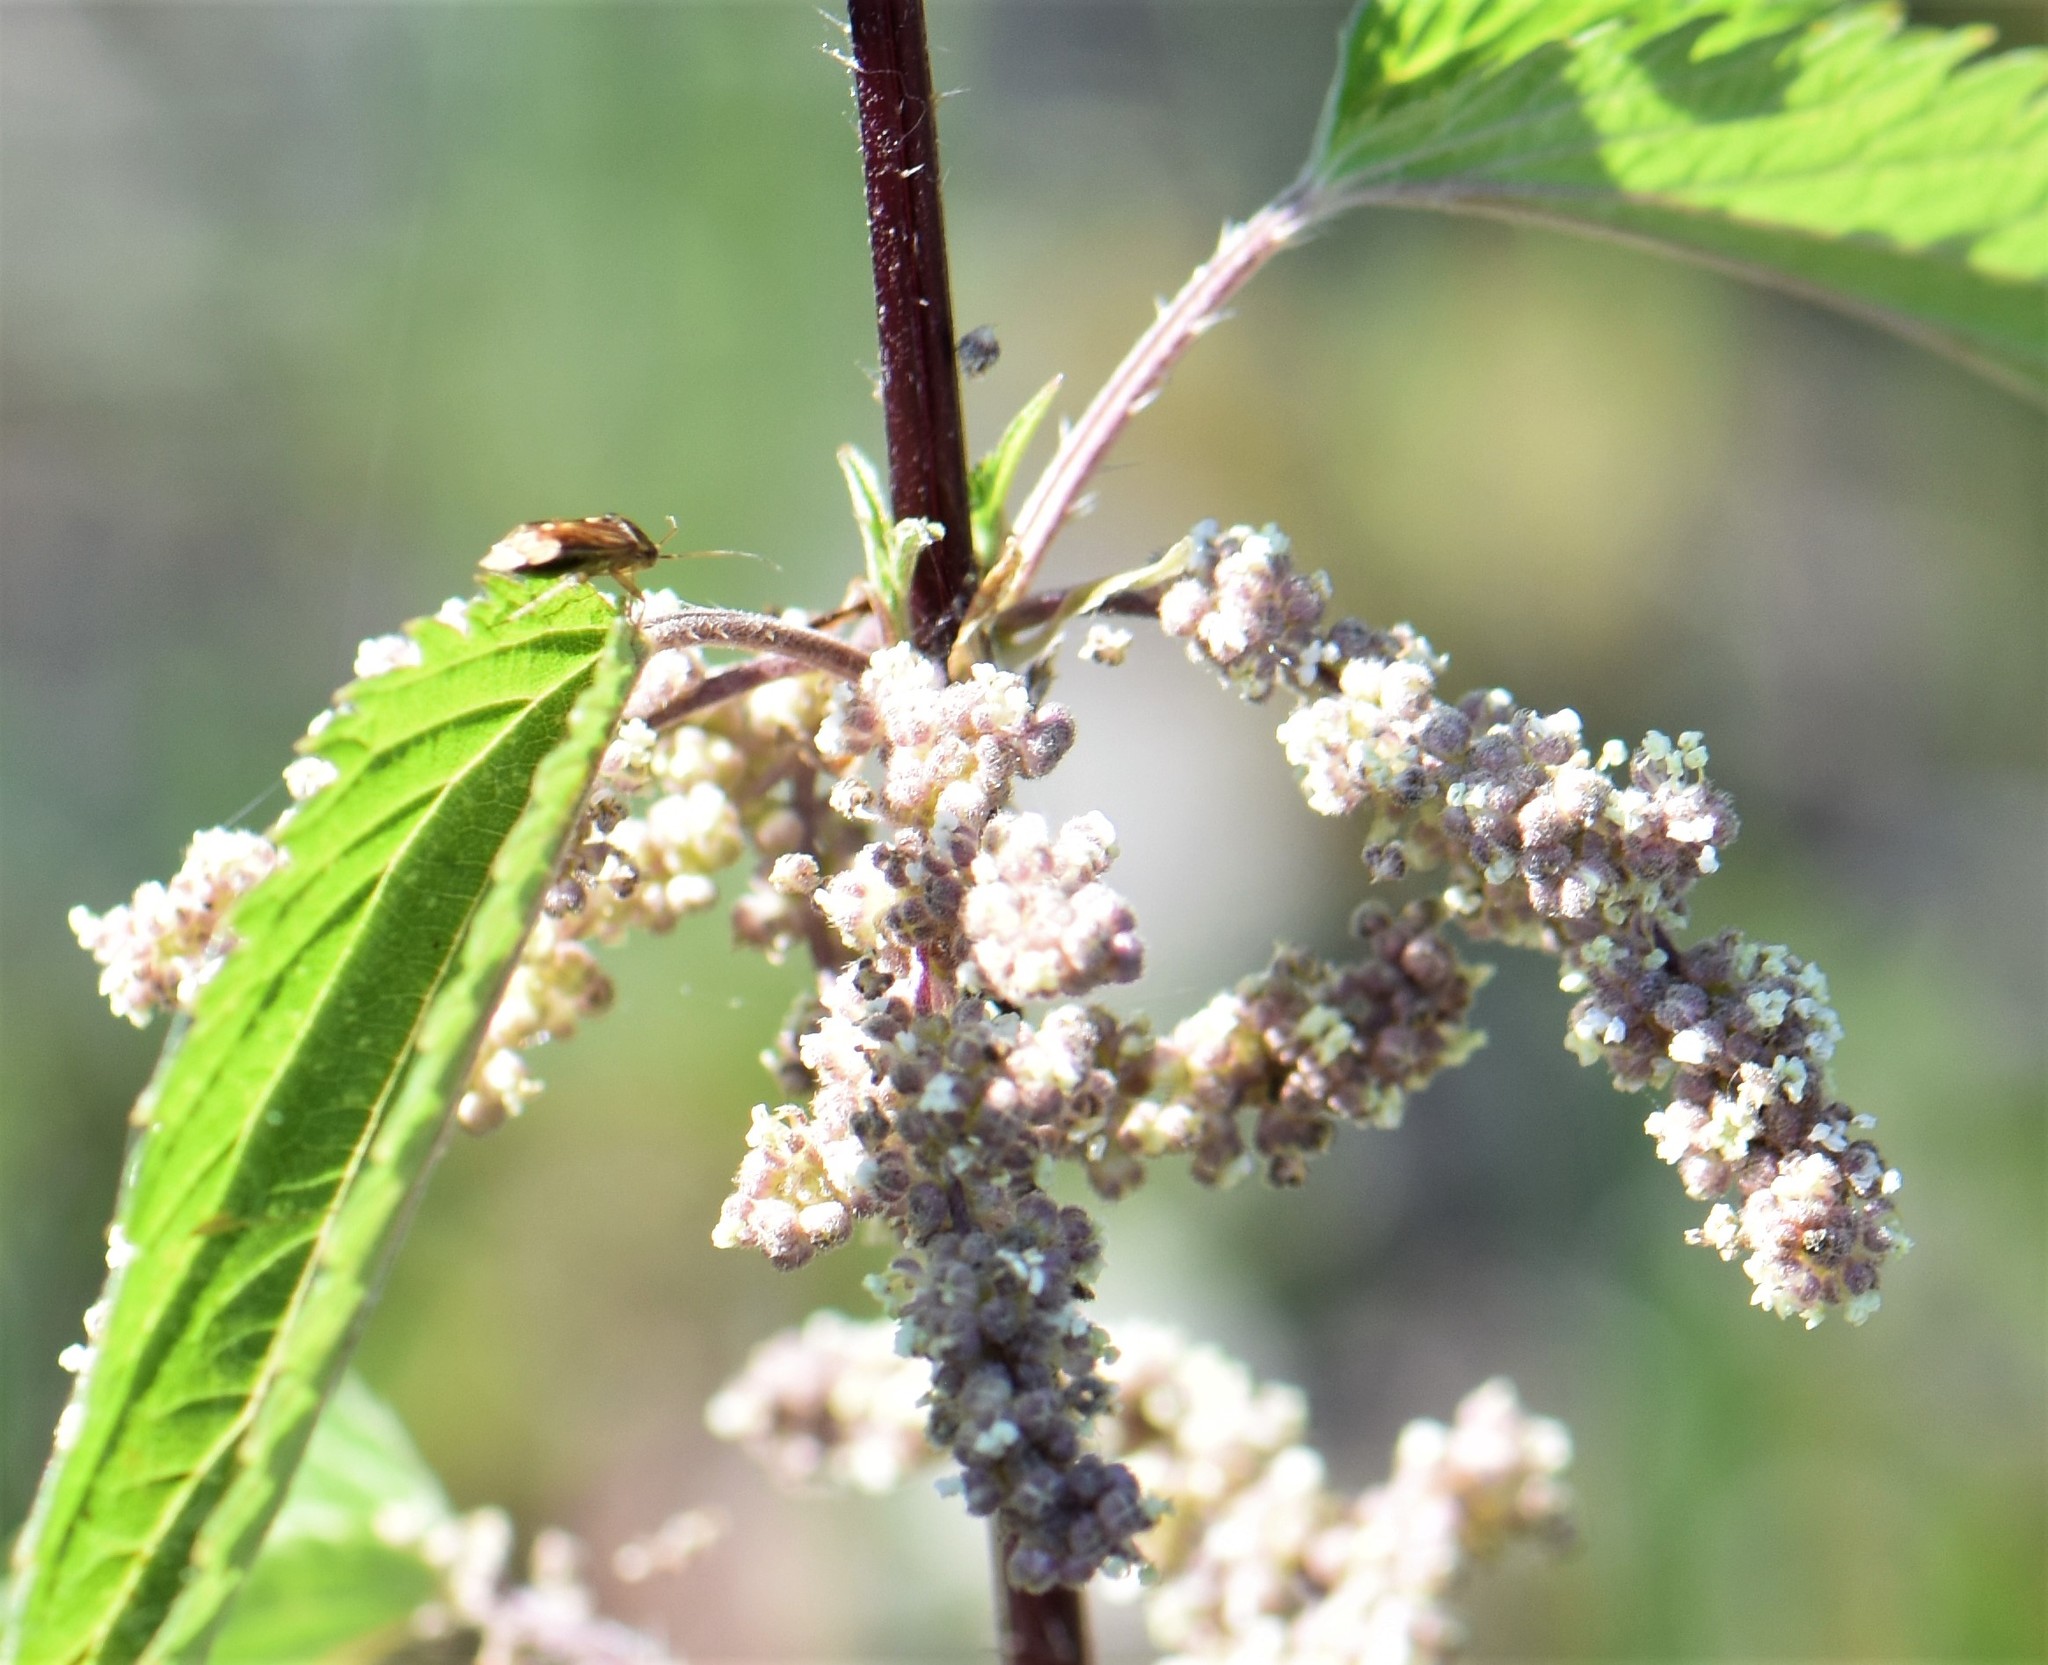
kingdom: Plantae
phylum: Tracheophyta
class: Magnoliopsida
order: Rosales
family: Urticaceae
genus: Urtica
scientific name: Urtica gracilis
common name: Slender stinging nettle
